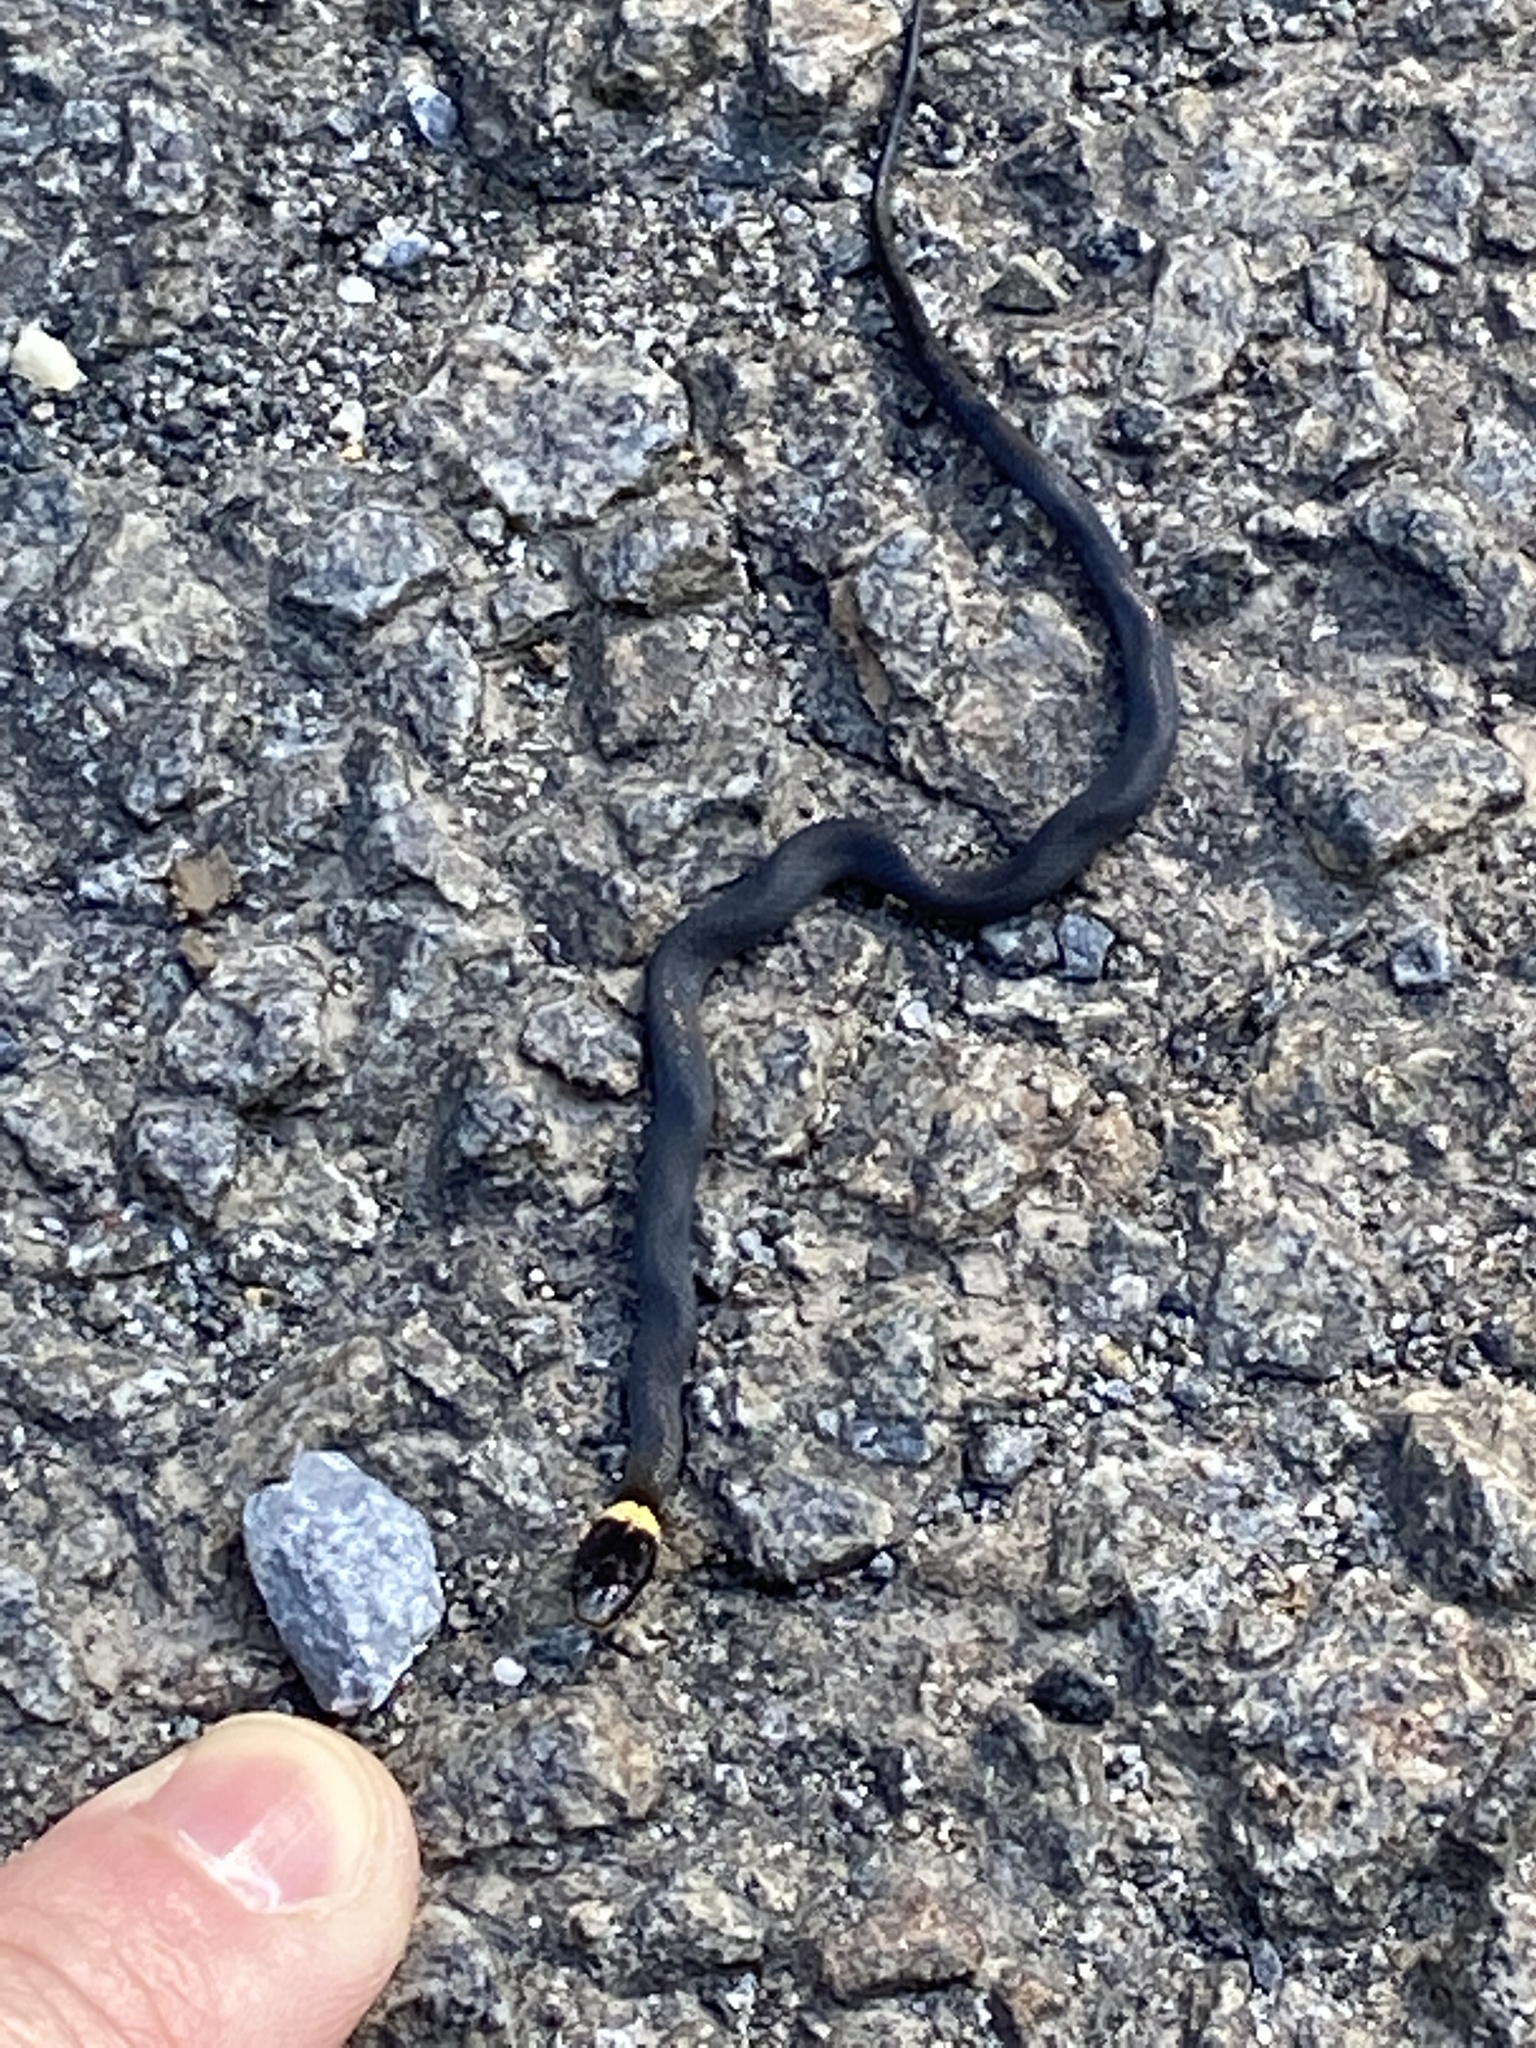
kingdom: Animalia
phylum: Chordata
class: Squamata
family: Colubridae
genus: Diadophis
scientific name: Diadophis punctatus
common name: Ringneck snake
